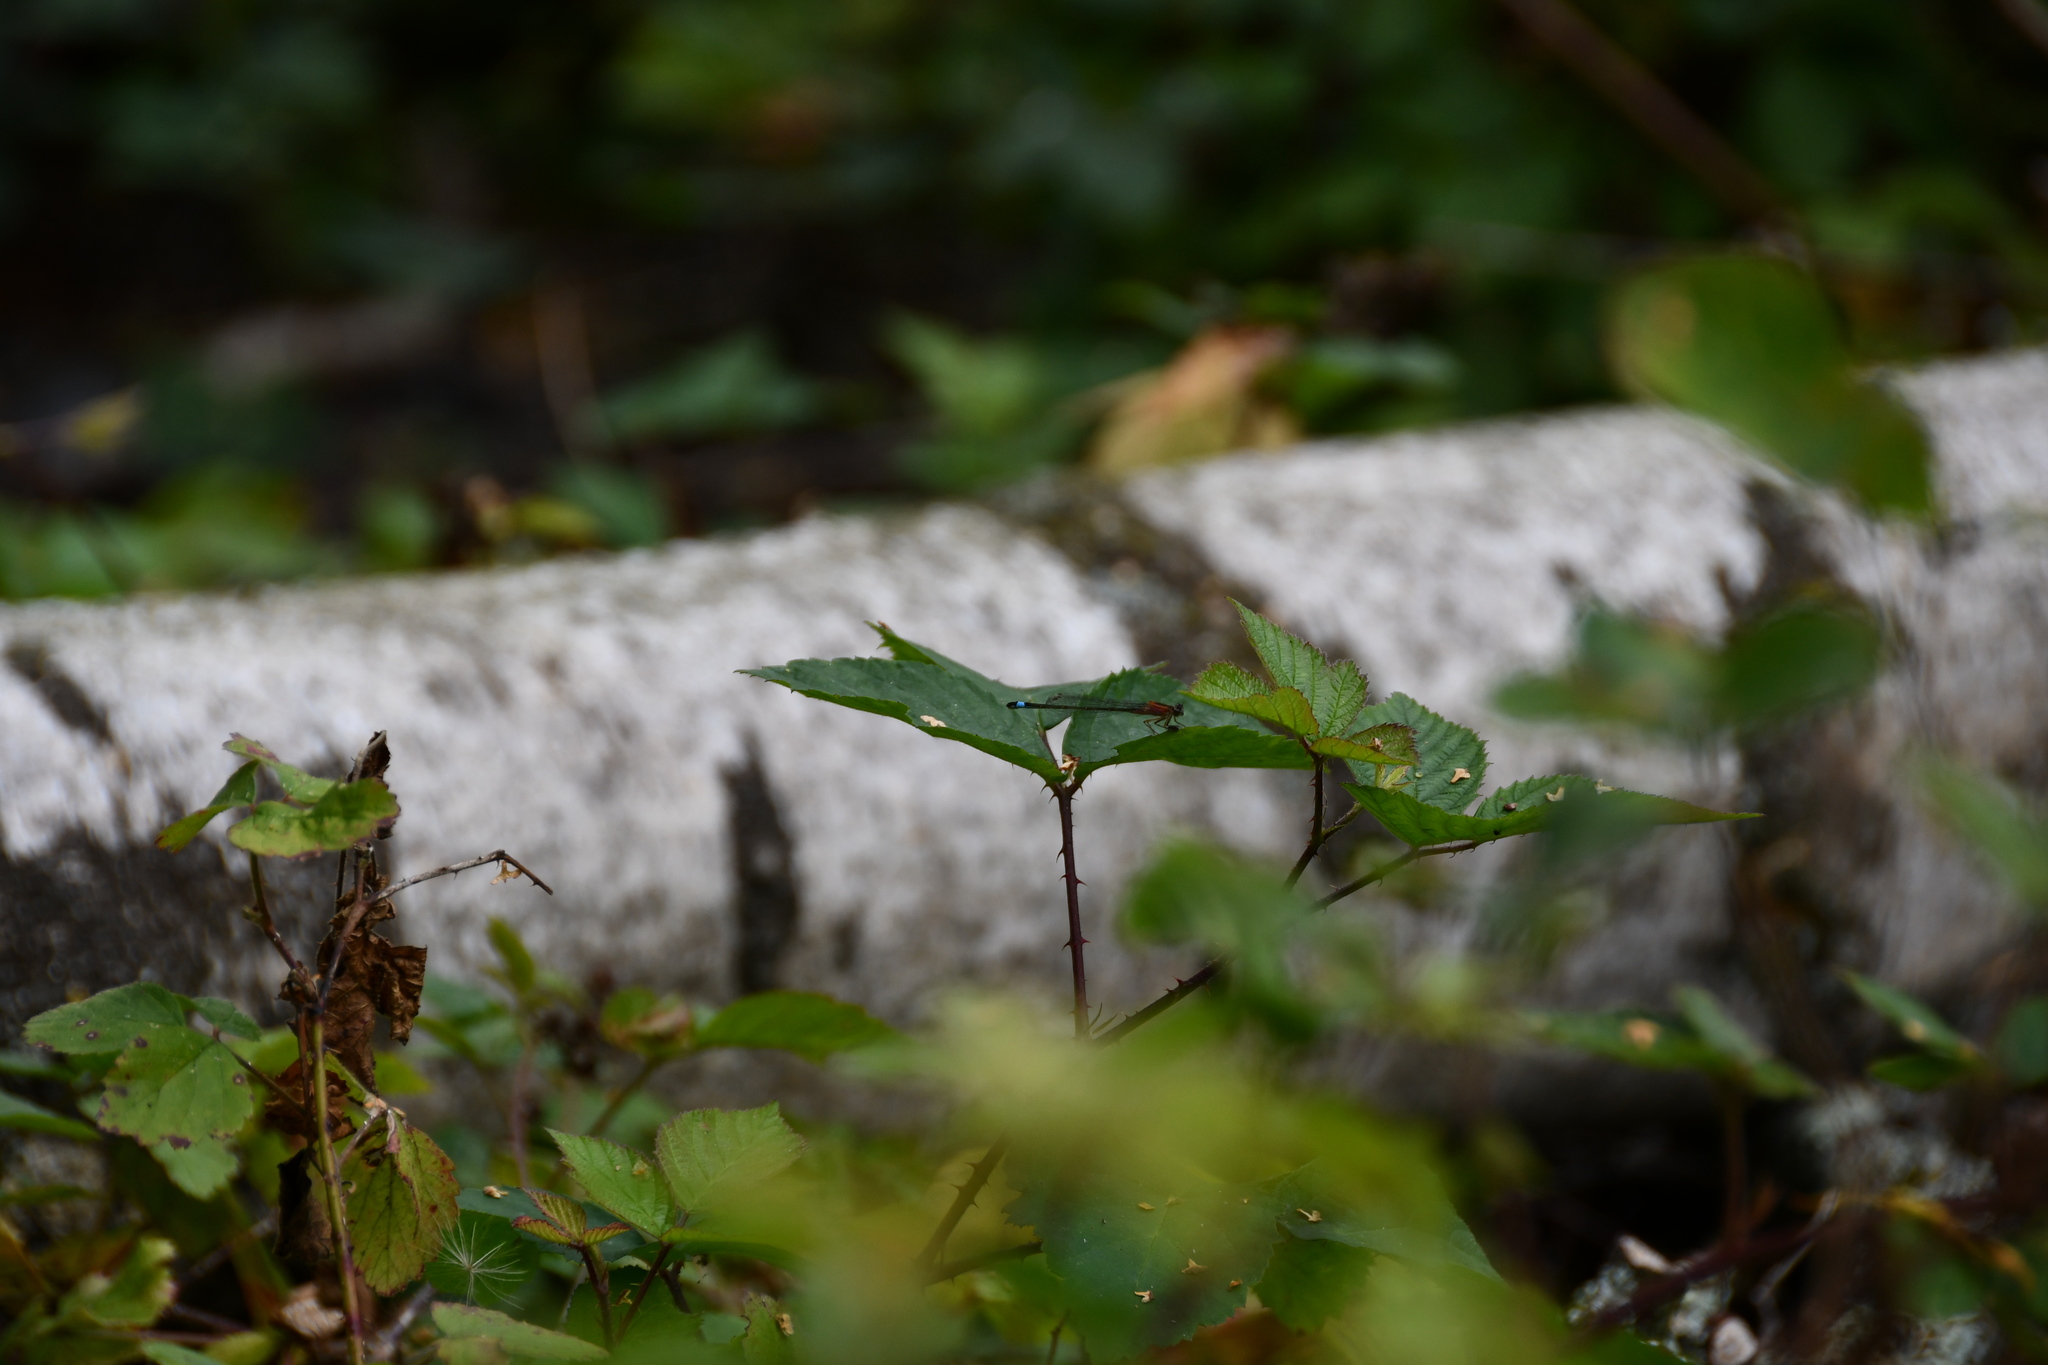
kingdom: Animalia
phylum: Arthropoda
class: Insecta
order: Odonata
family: Coenagrionidae
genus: Ischnura
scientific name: Ischnura elegans
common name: Blue-tailed damselfly
